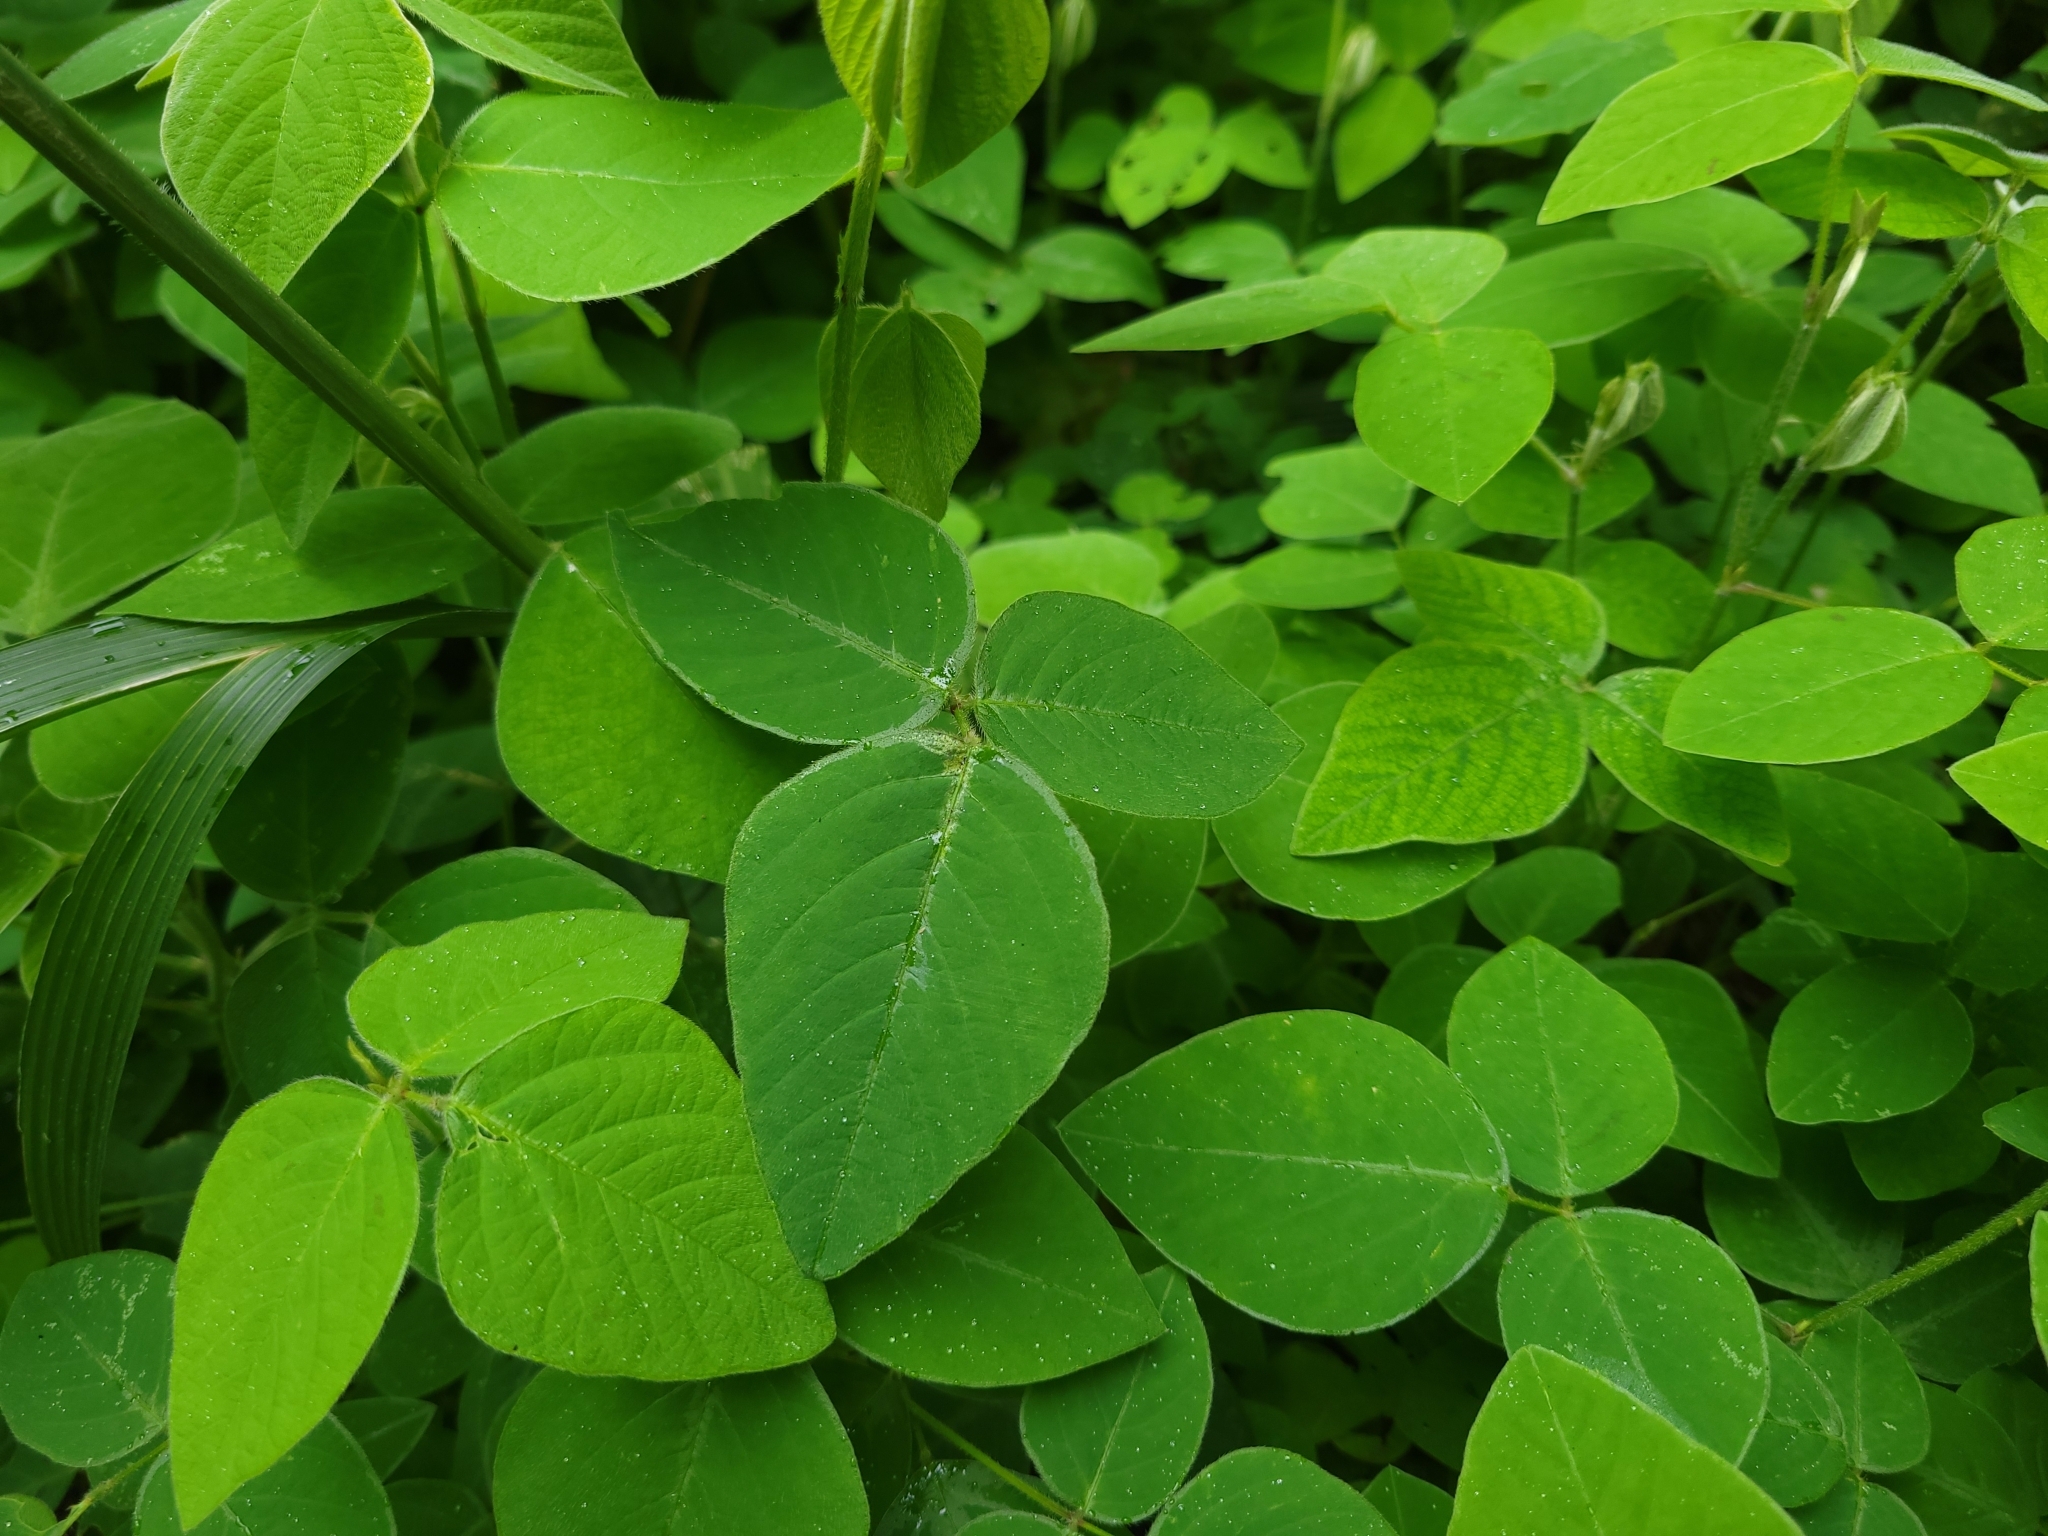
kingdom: Plantae
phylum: Tracheophyta
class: Magnoliopsida
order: Fabales
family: Fabaceae
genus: Desmodium
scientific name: Desmodium uncinatum
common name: Silverleaf desmodium
